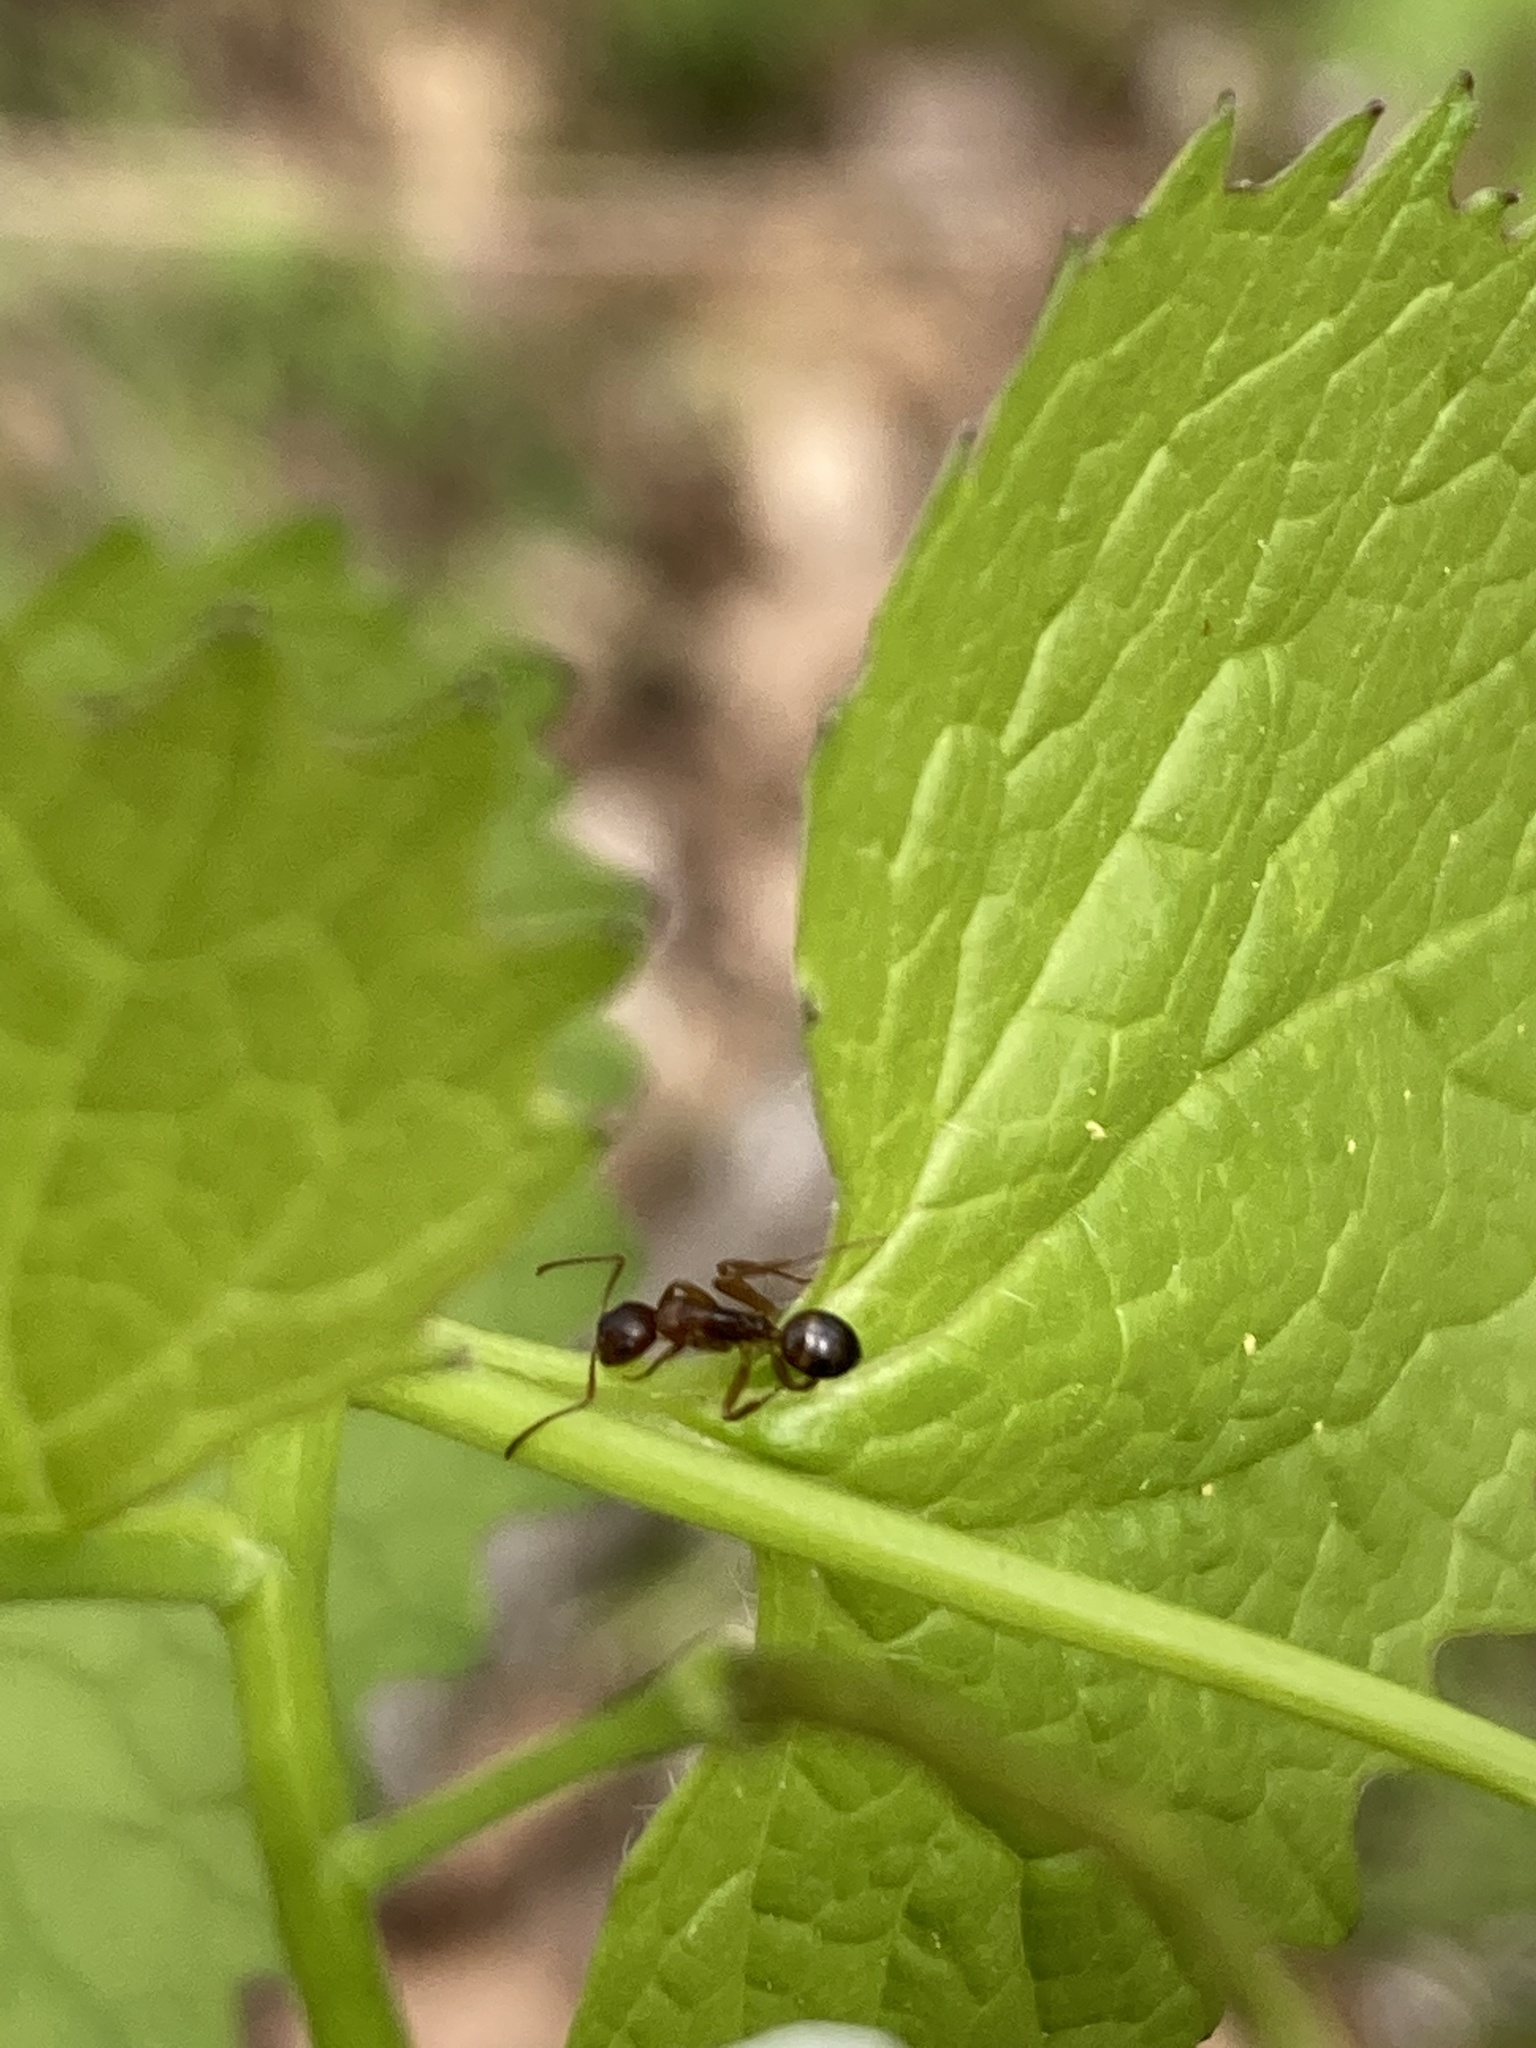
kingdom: Animalia
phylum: Arthropoda
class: Insecta
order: Hymenoptera
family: Formicidae
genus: Camponotus
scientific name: Camponotus subbarbatus
